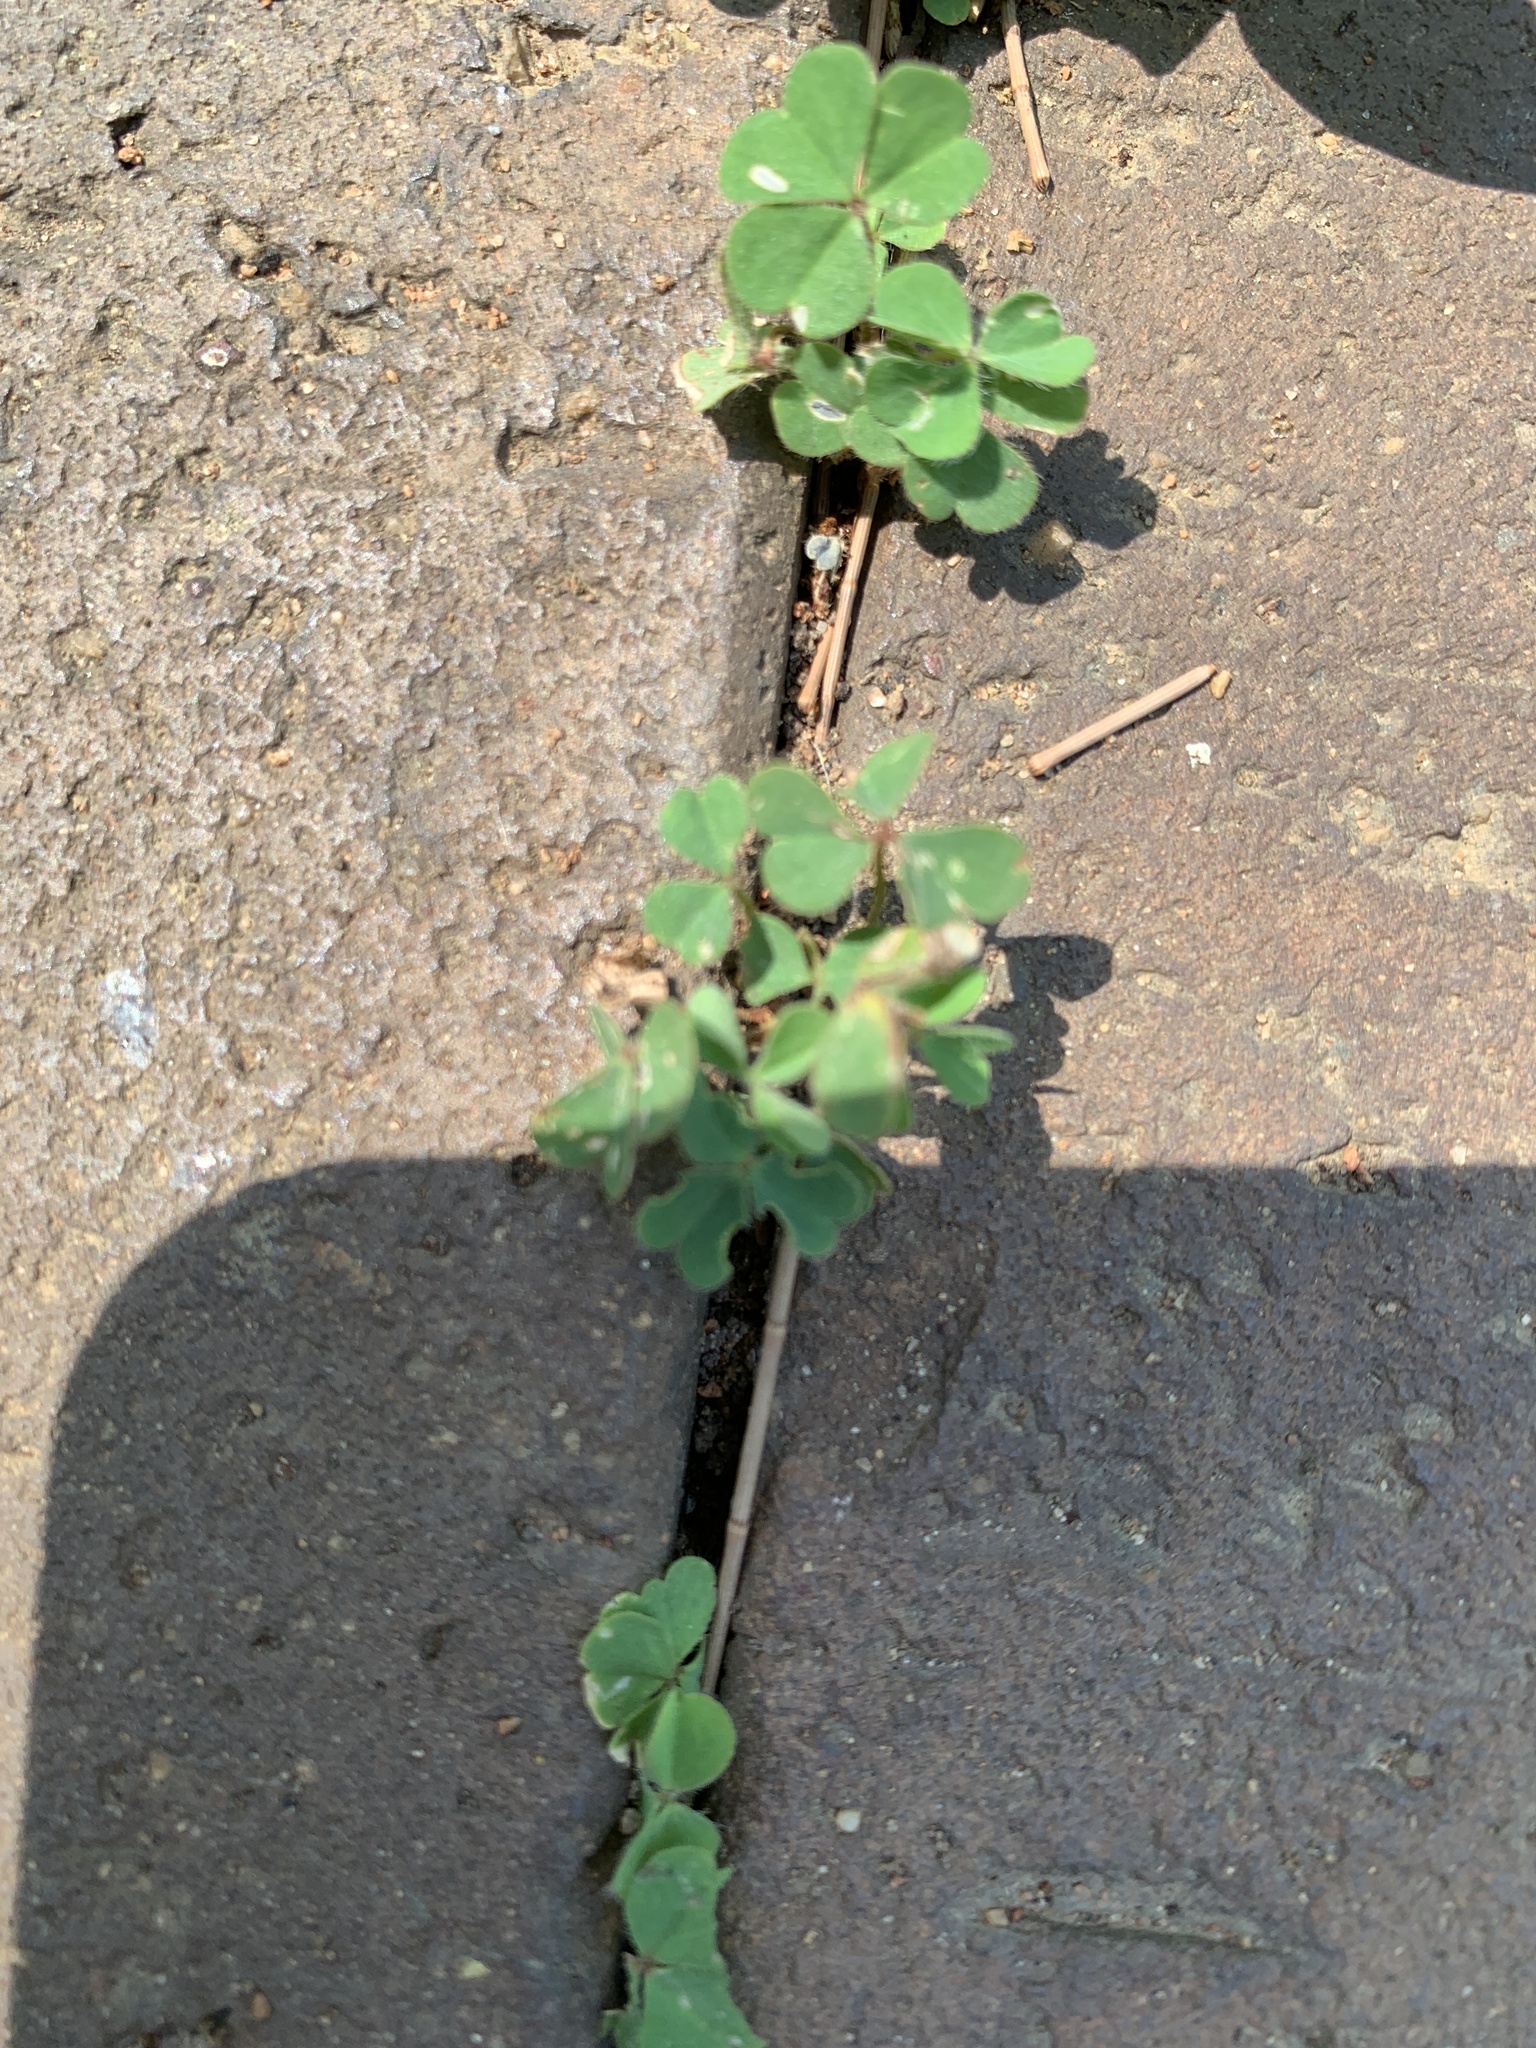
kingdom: Plantae
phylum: Tracheophyta
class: Magnoliopsida
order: Oxalidales
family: Oxalidaceae
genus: Oxalis
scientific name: Oxalis corniculata
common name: Procumbent yellow-sorrel
